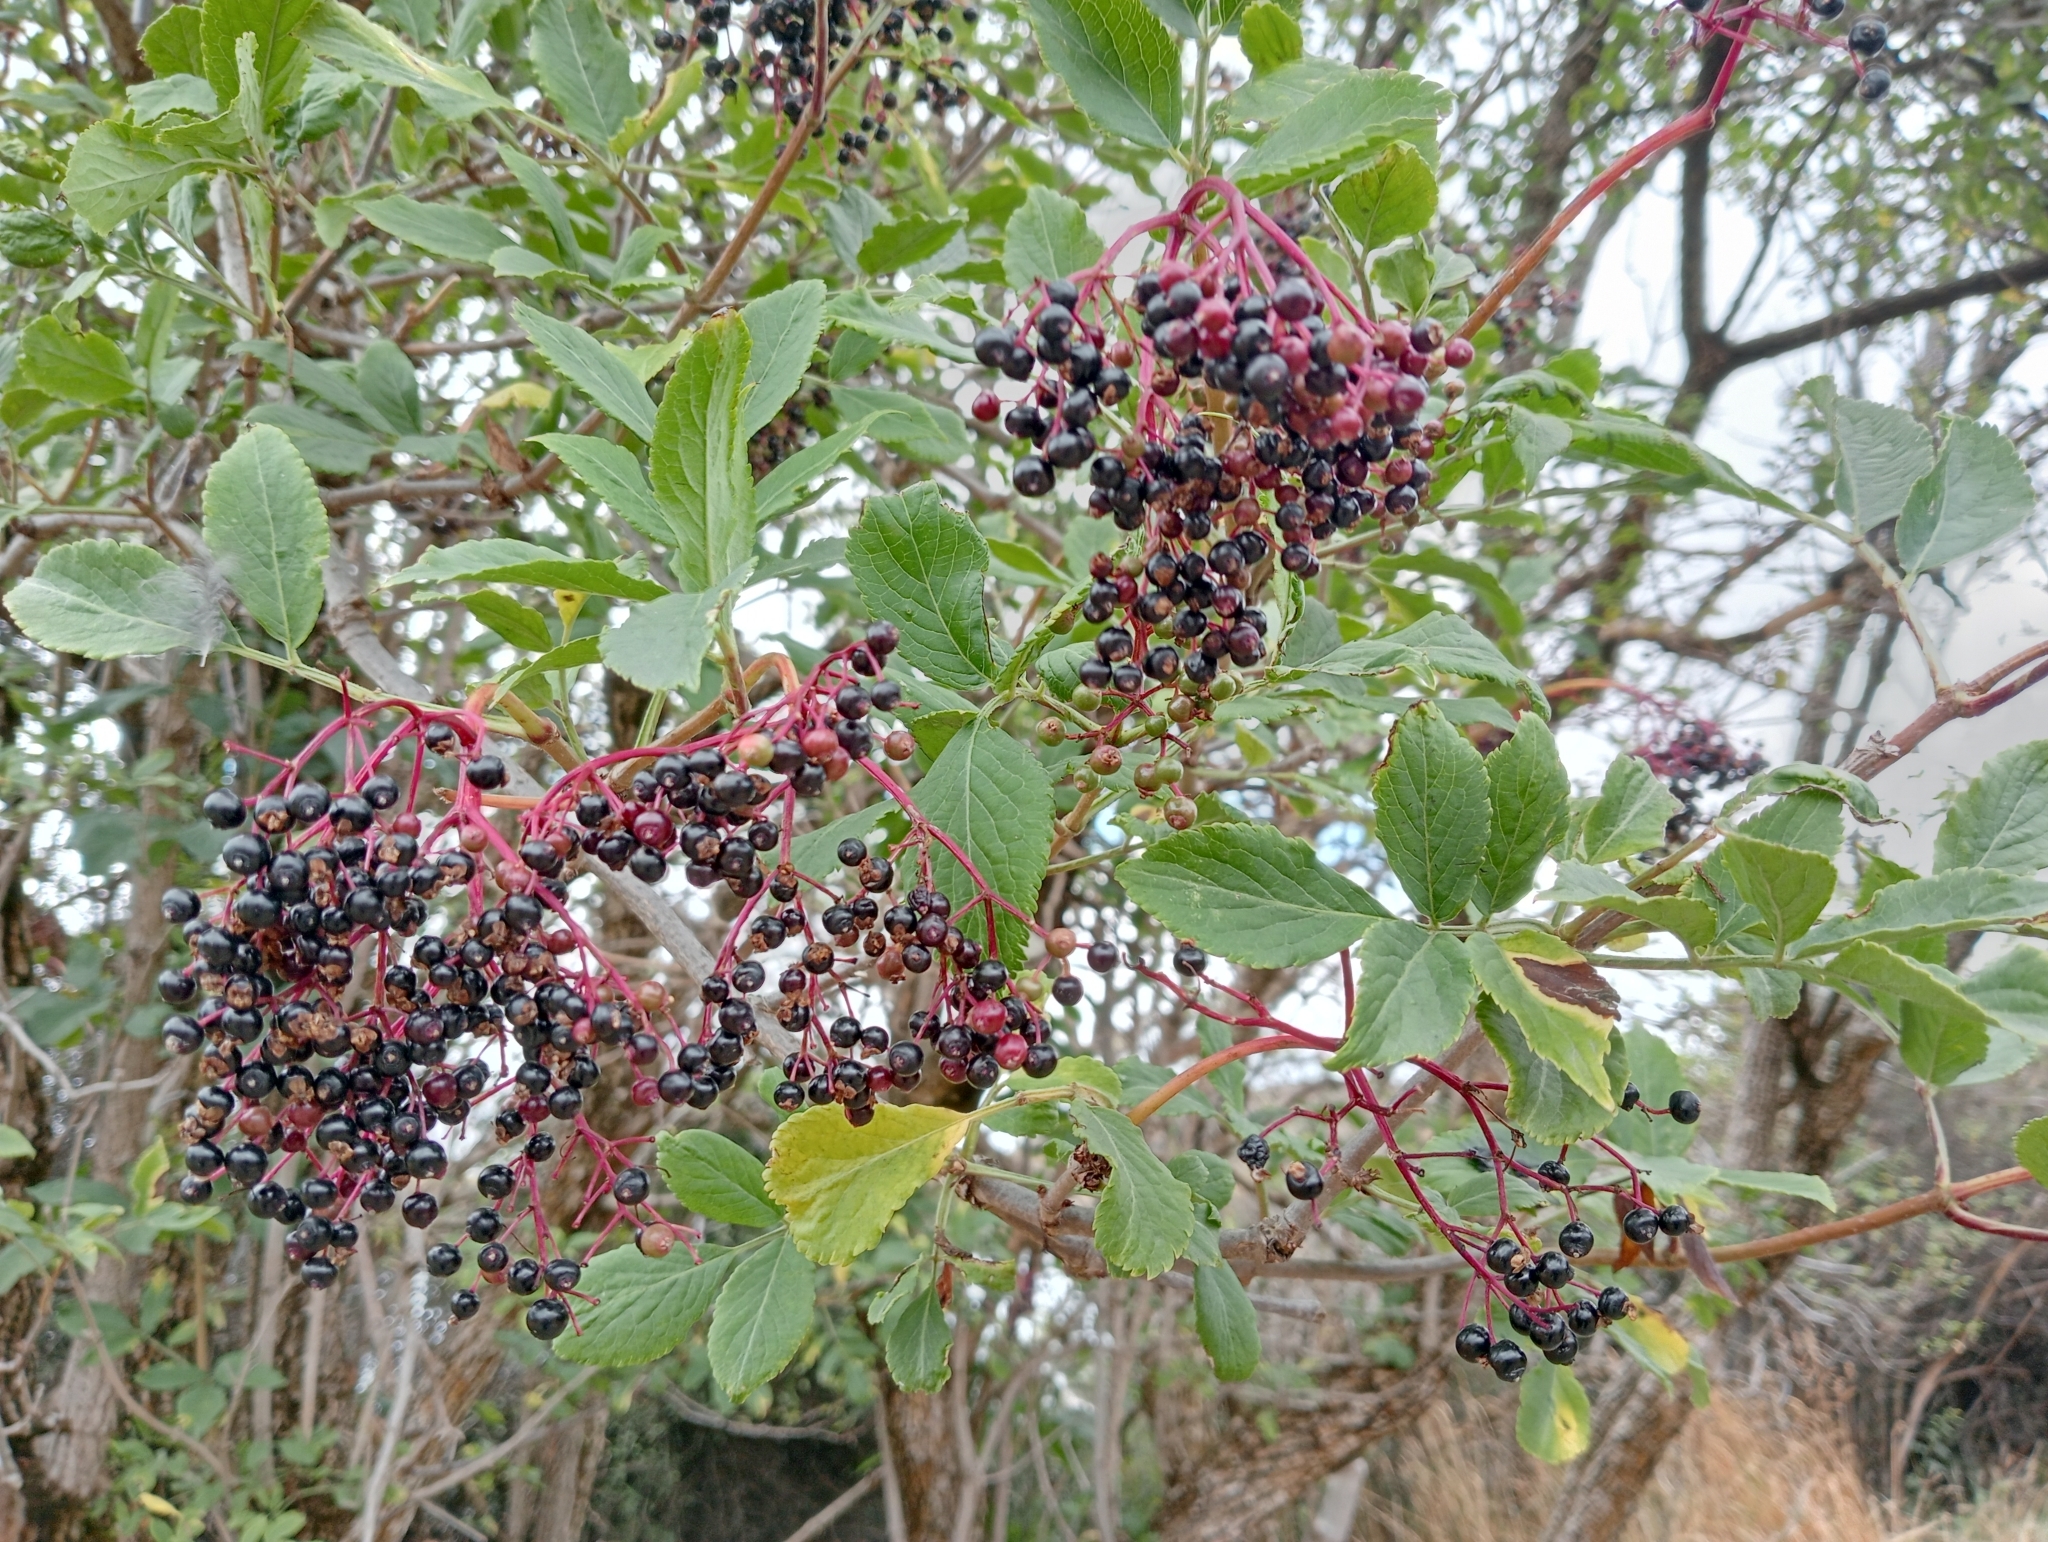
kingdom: Plantae
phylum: Tracheophyta
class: Magnoliopsida
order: Dipsacales
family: Viburnaceae
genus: Sambucus
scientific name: Sambucus nigra
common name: Elder
